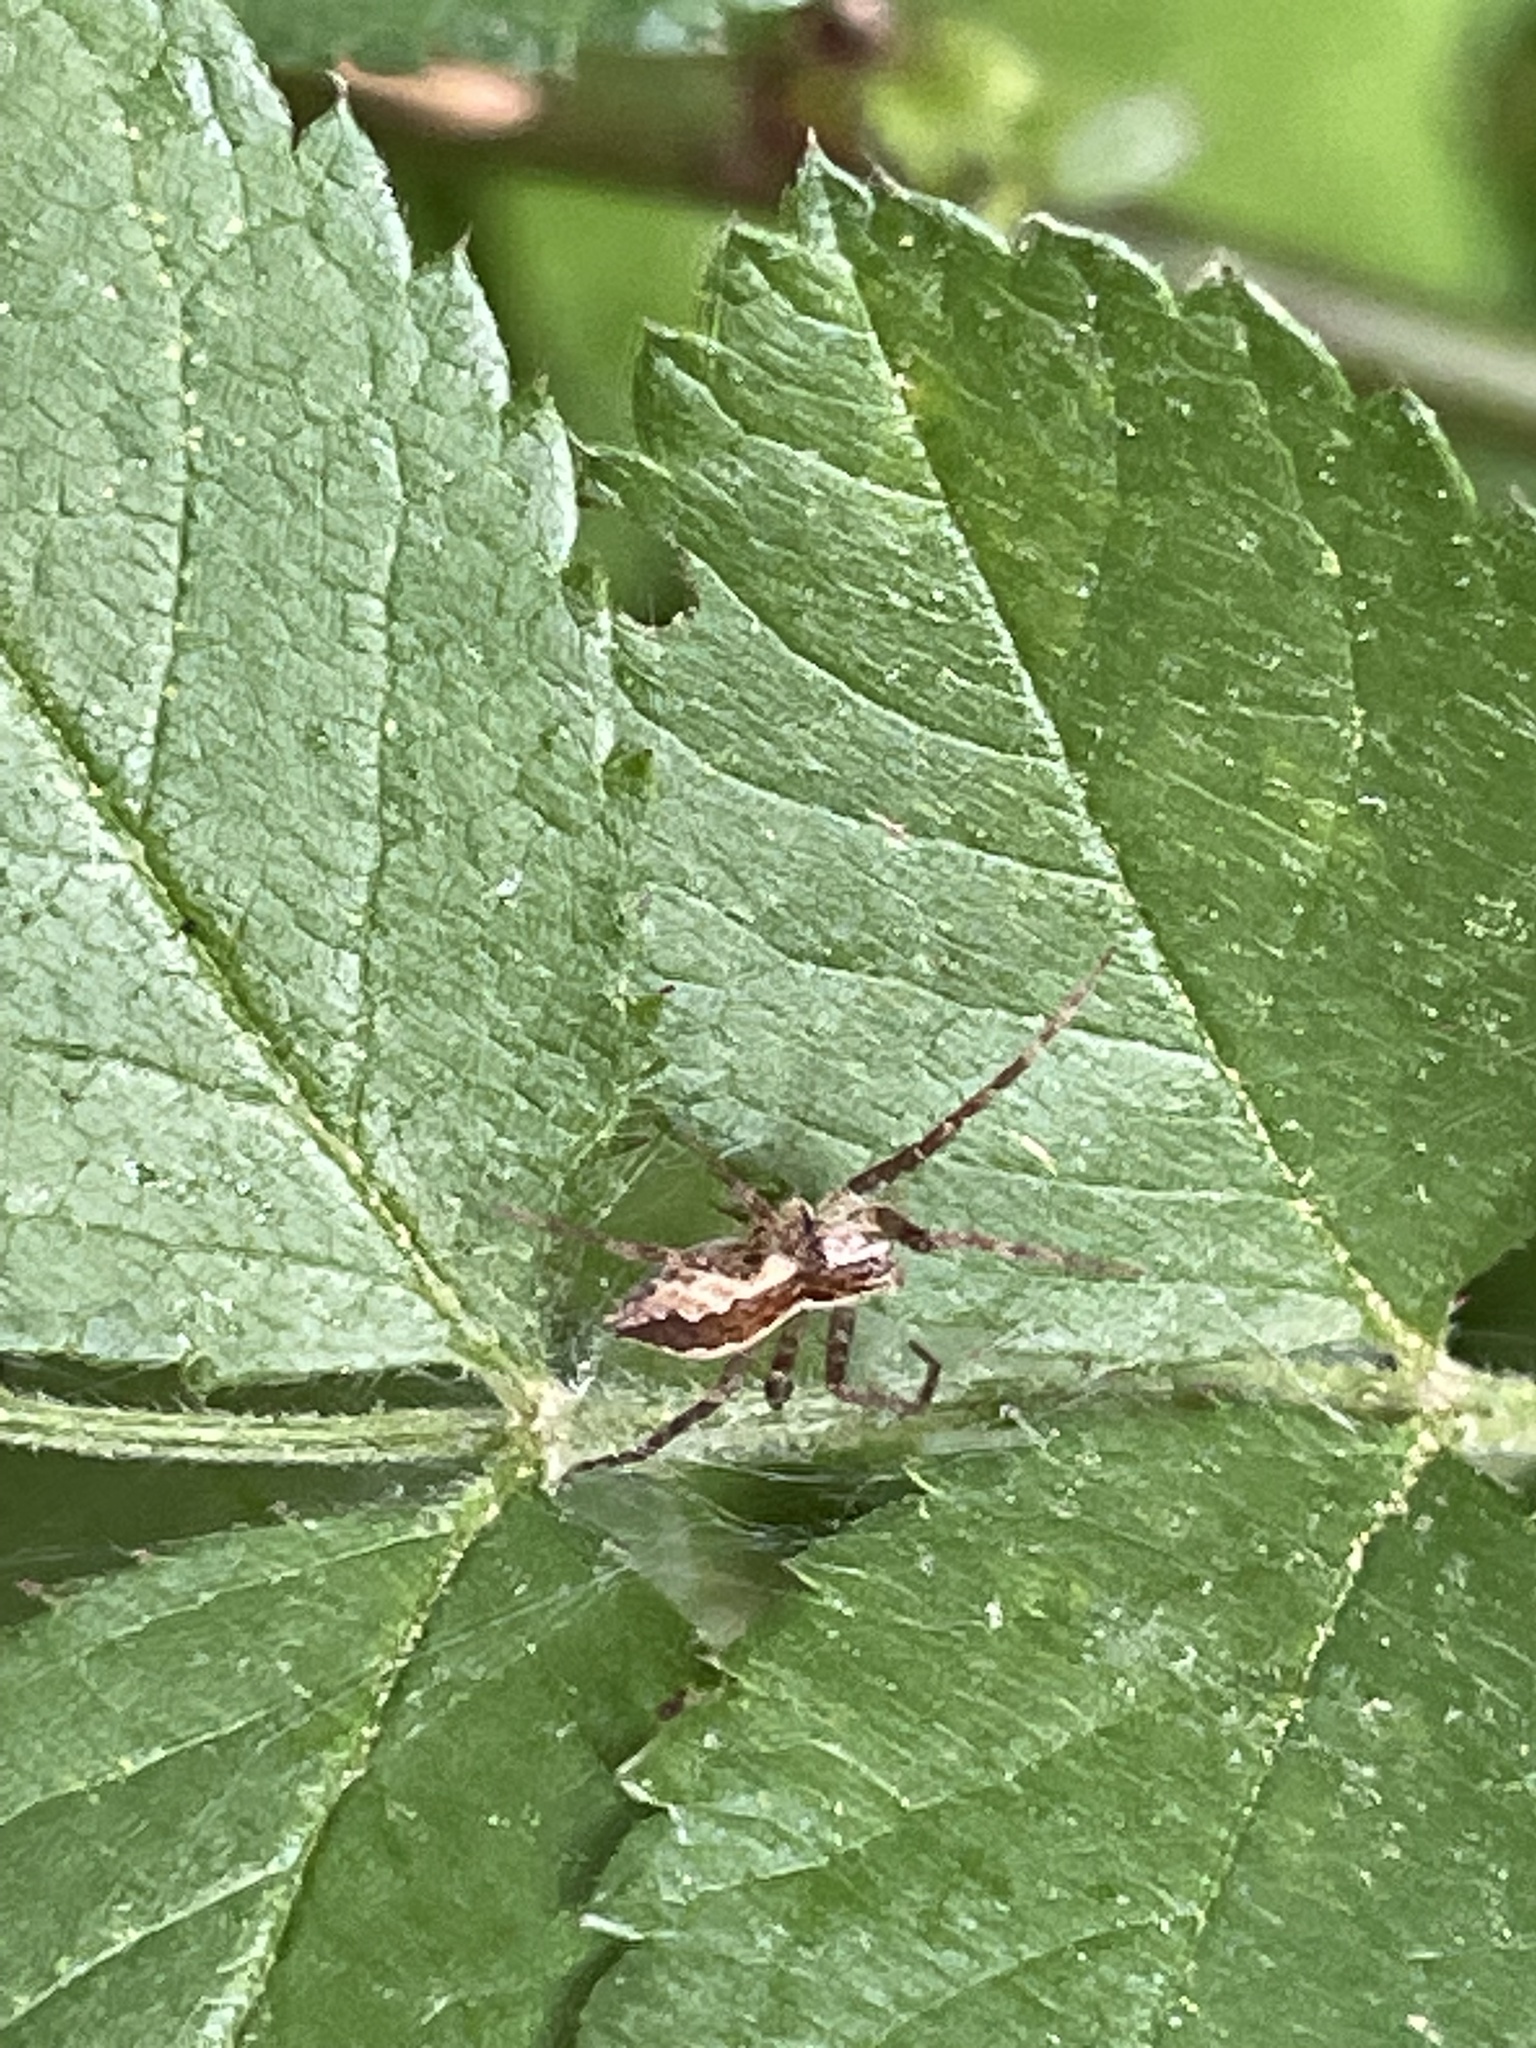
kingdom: Animalia
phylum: Arthropoda
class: Arachnida
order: Araneae
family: Pisauridae
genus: Pisaurina
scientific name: Pisaurina mira
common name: American nursery web spider
